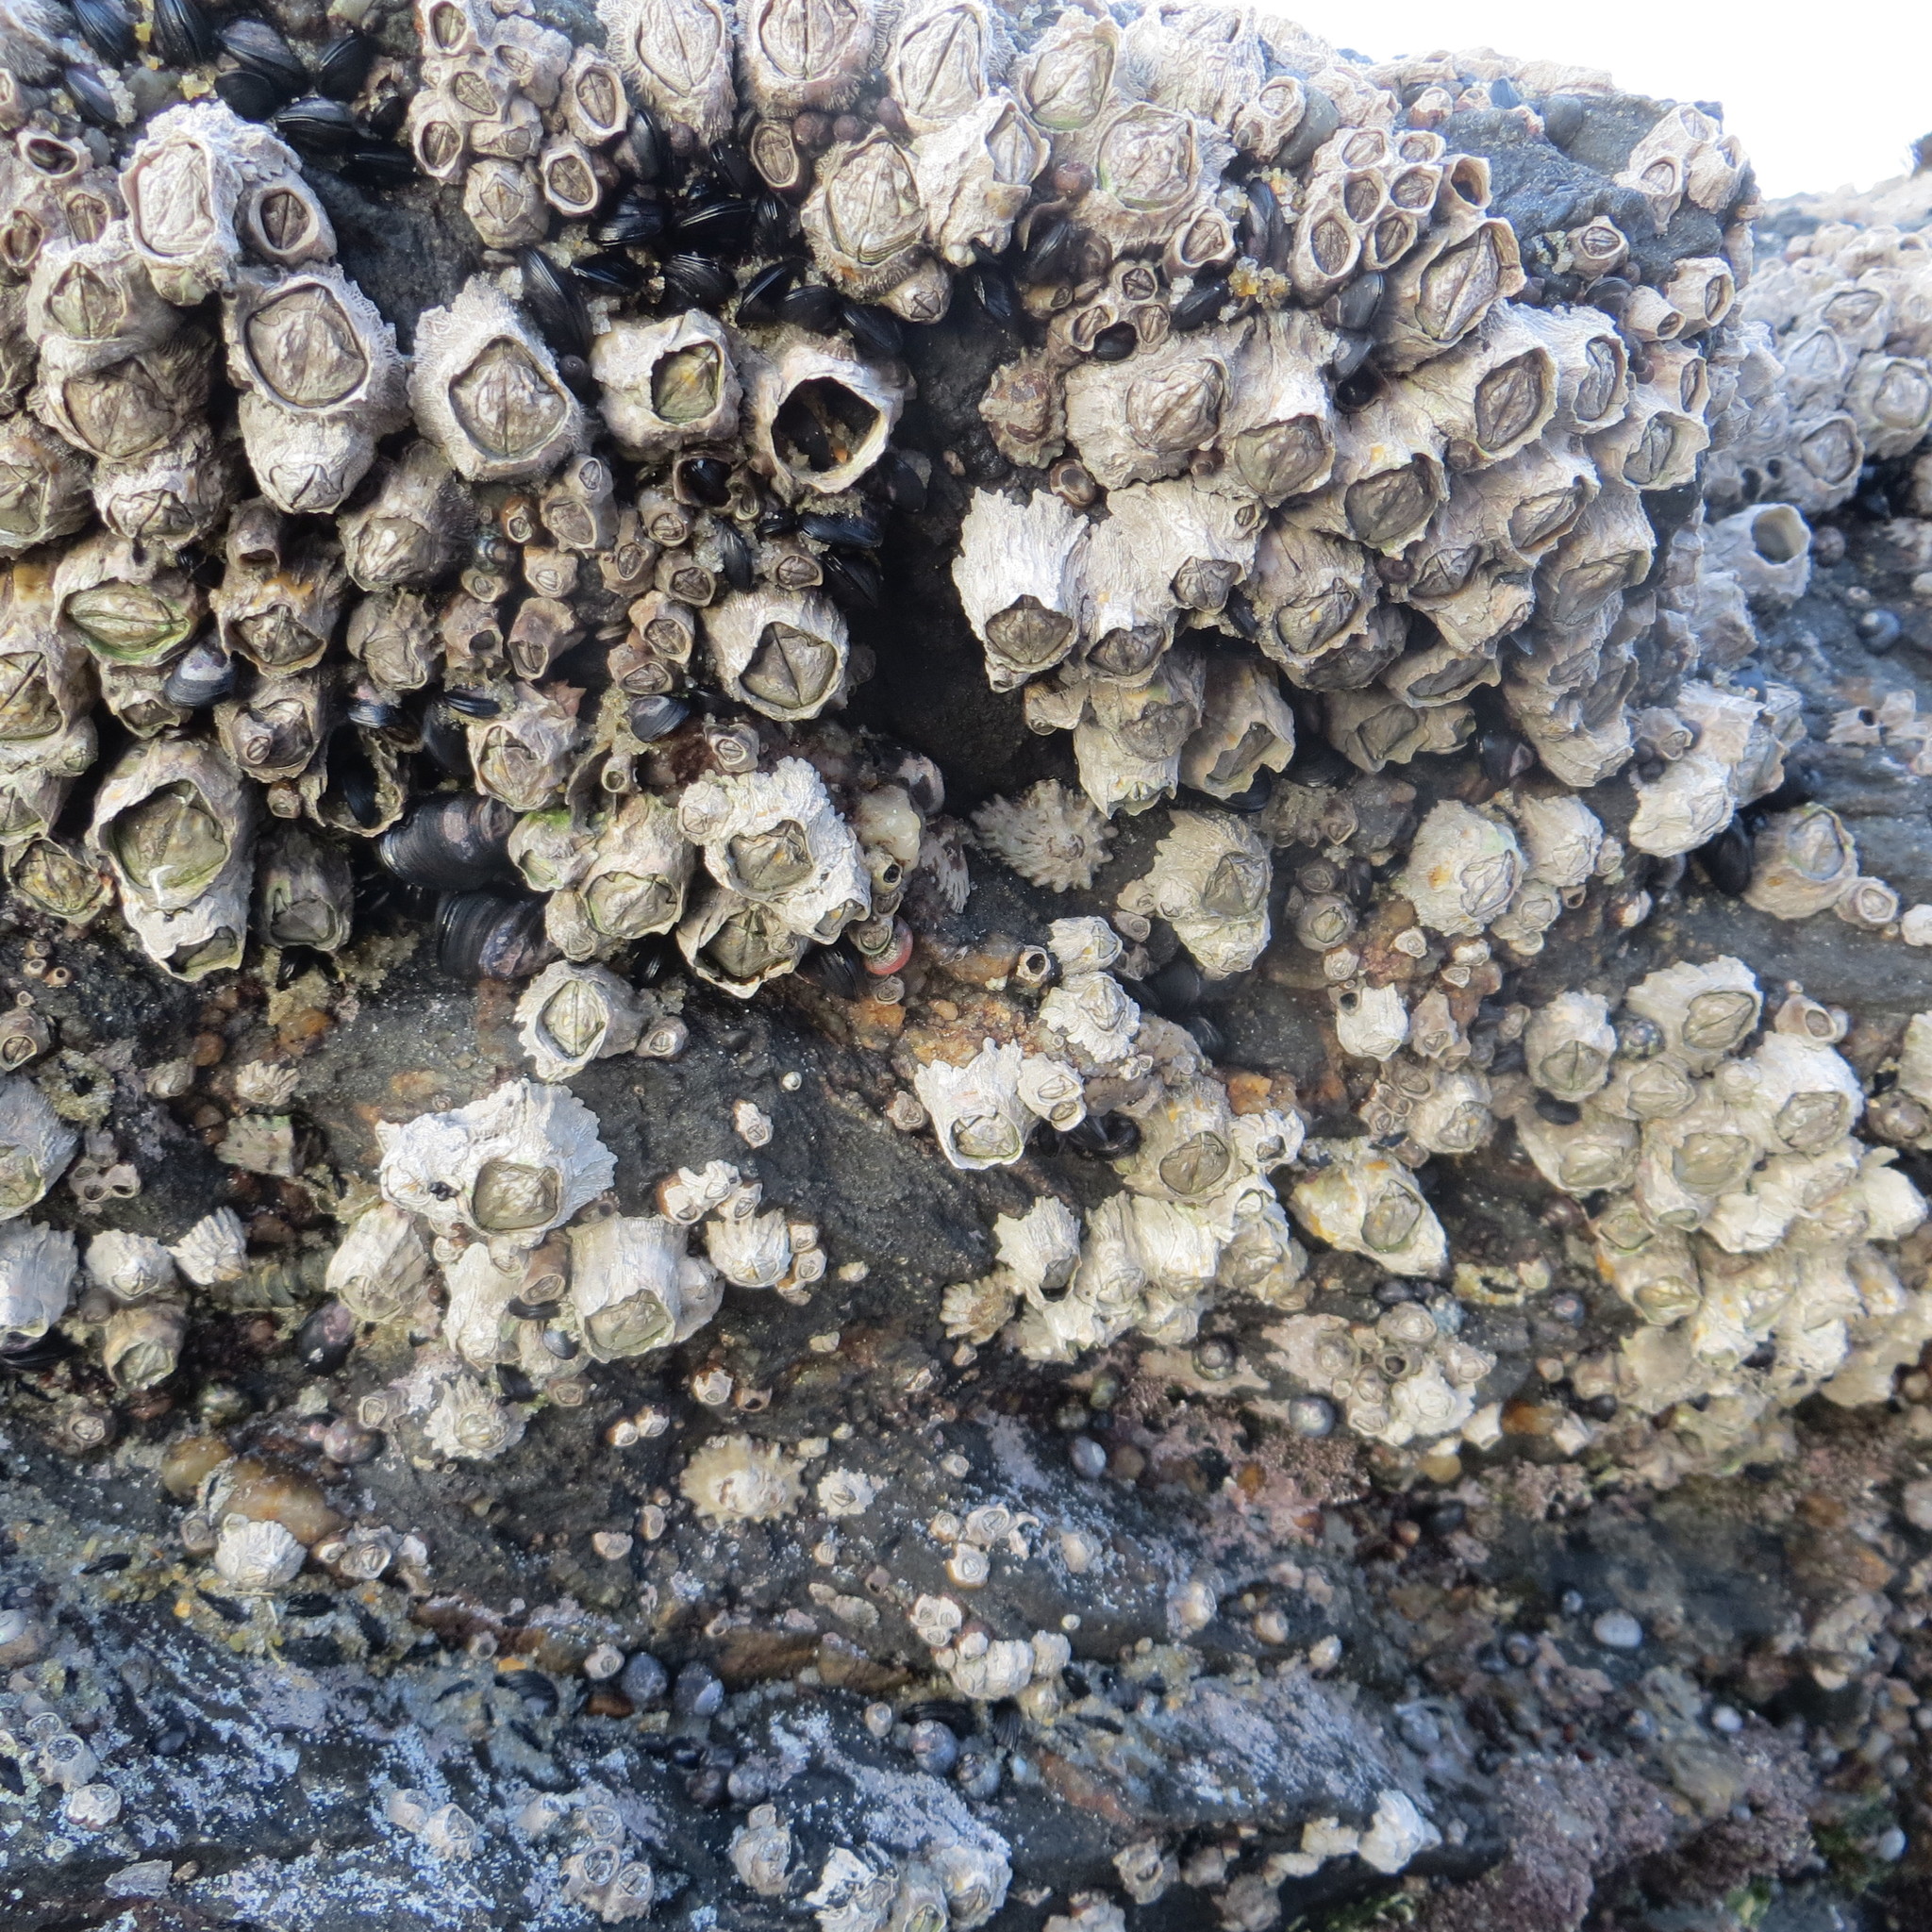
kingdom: Animalia
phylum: Arthropoda
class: Maxillopoda
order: Sessilia
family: Chthamalidae
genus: Chamaesipho
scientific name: Chamaesipho columna
